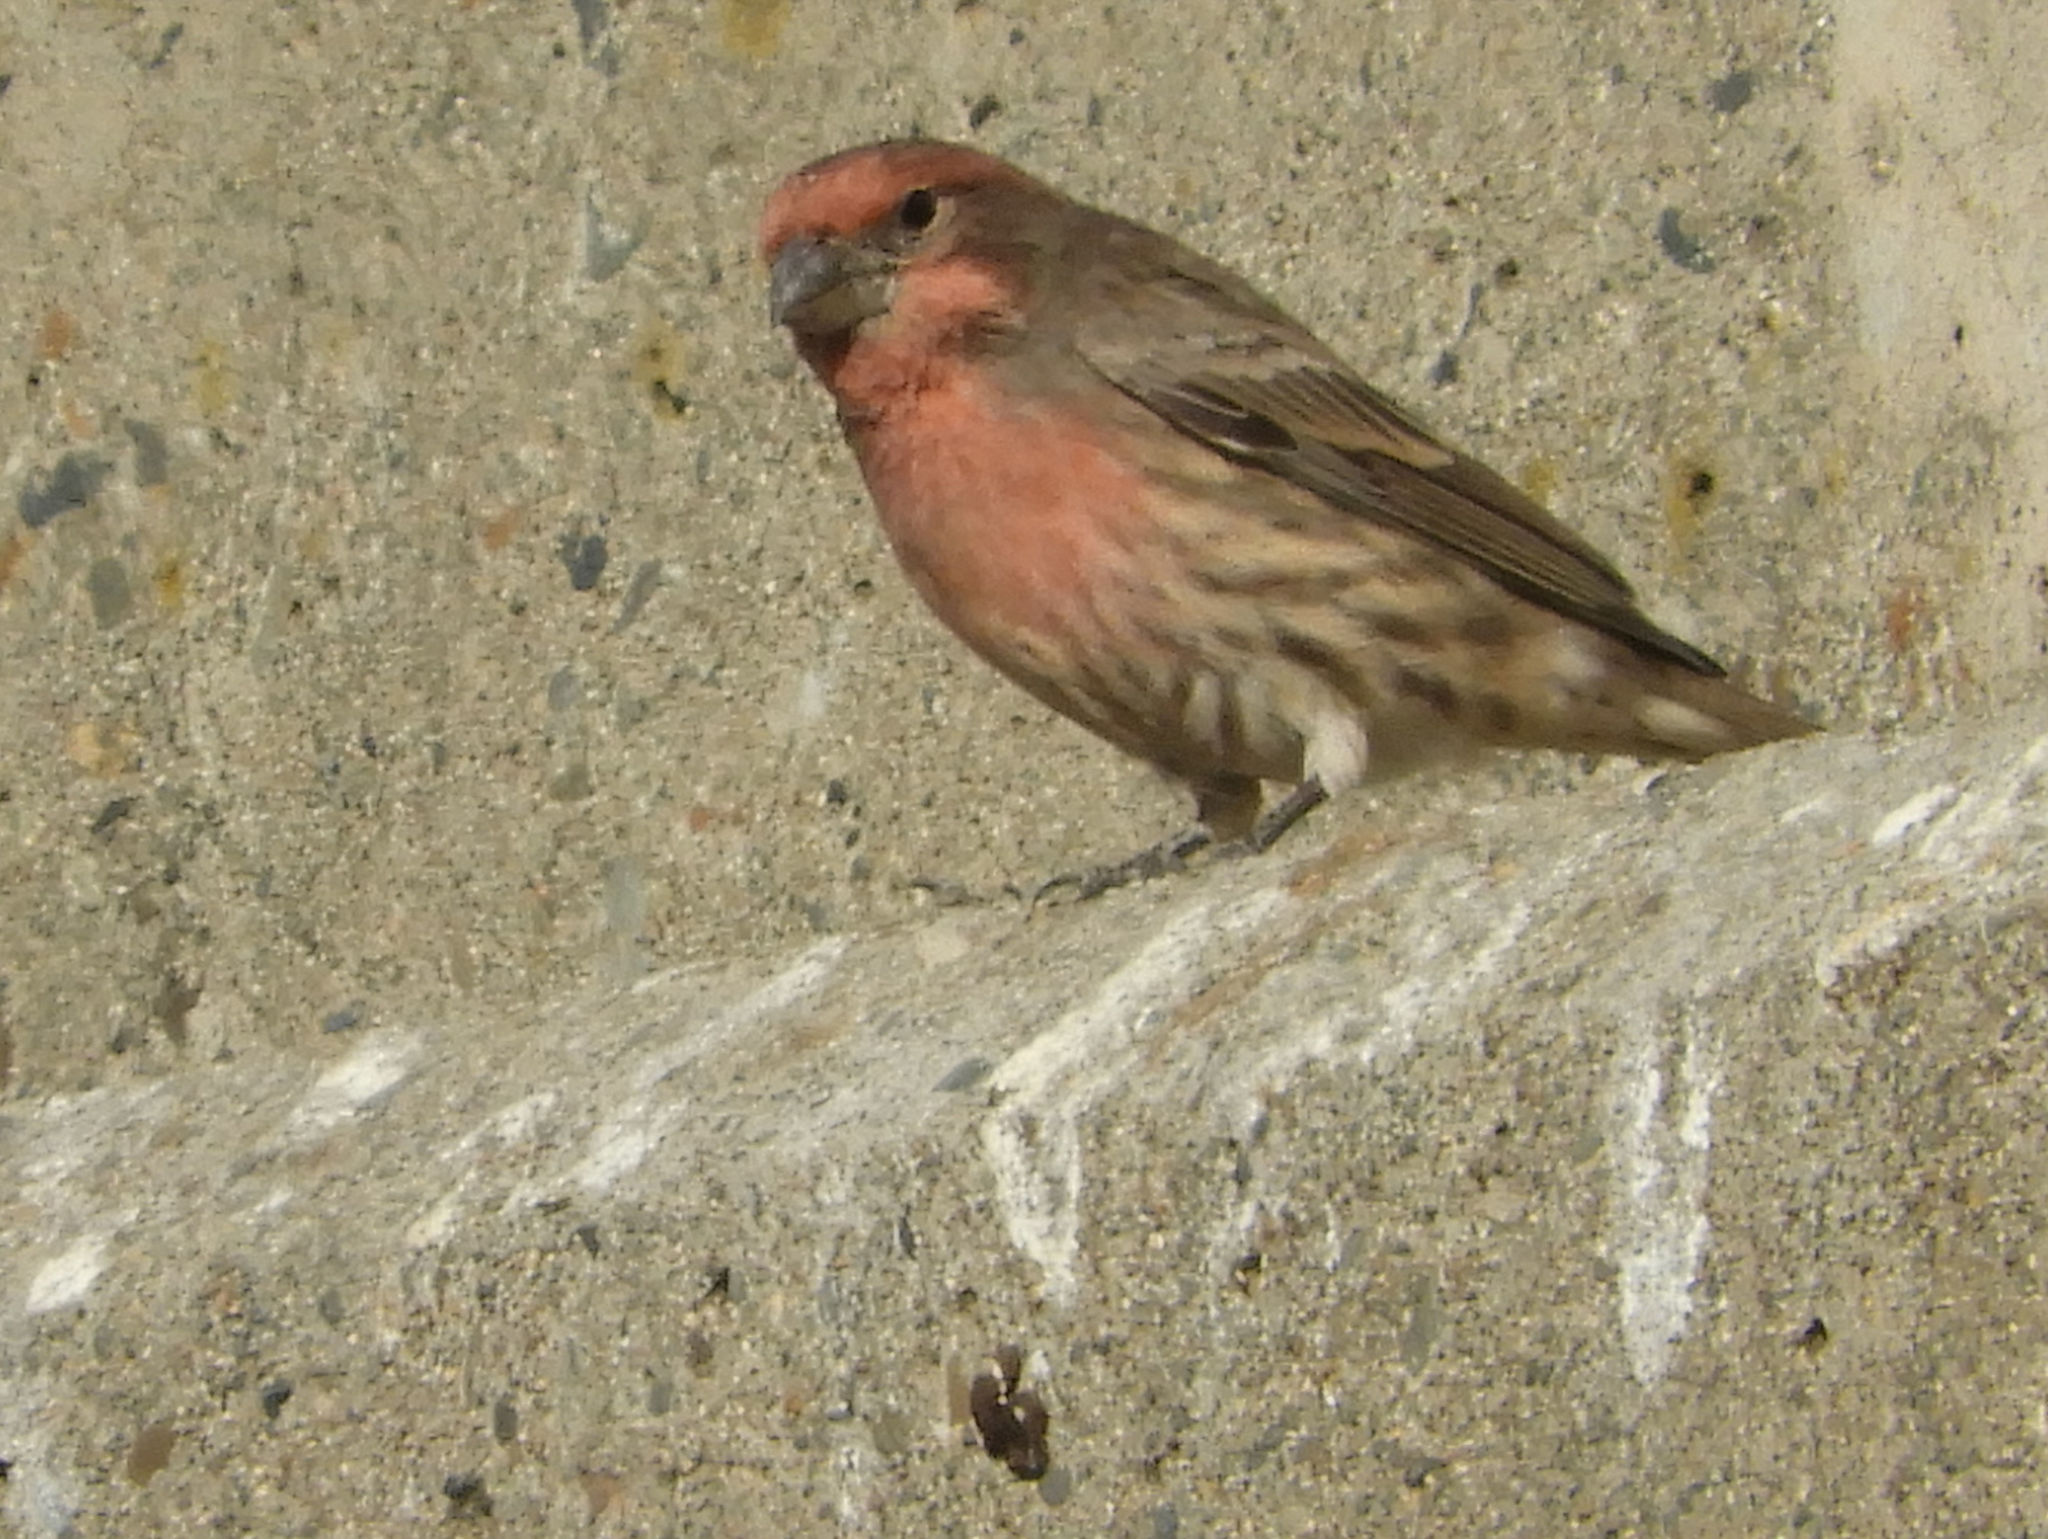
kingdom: Animalia
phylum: Chordata
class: Aves
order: Passeriformes
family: Fringillidae
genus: Haemorhous
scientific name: Haemorhous mexicanus
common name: House finch
